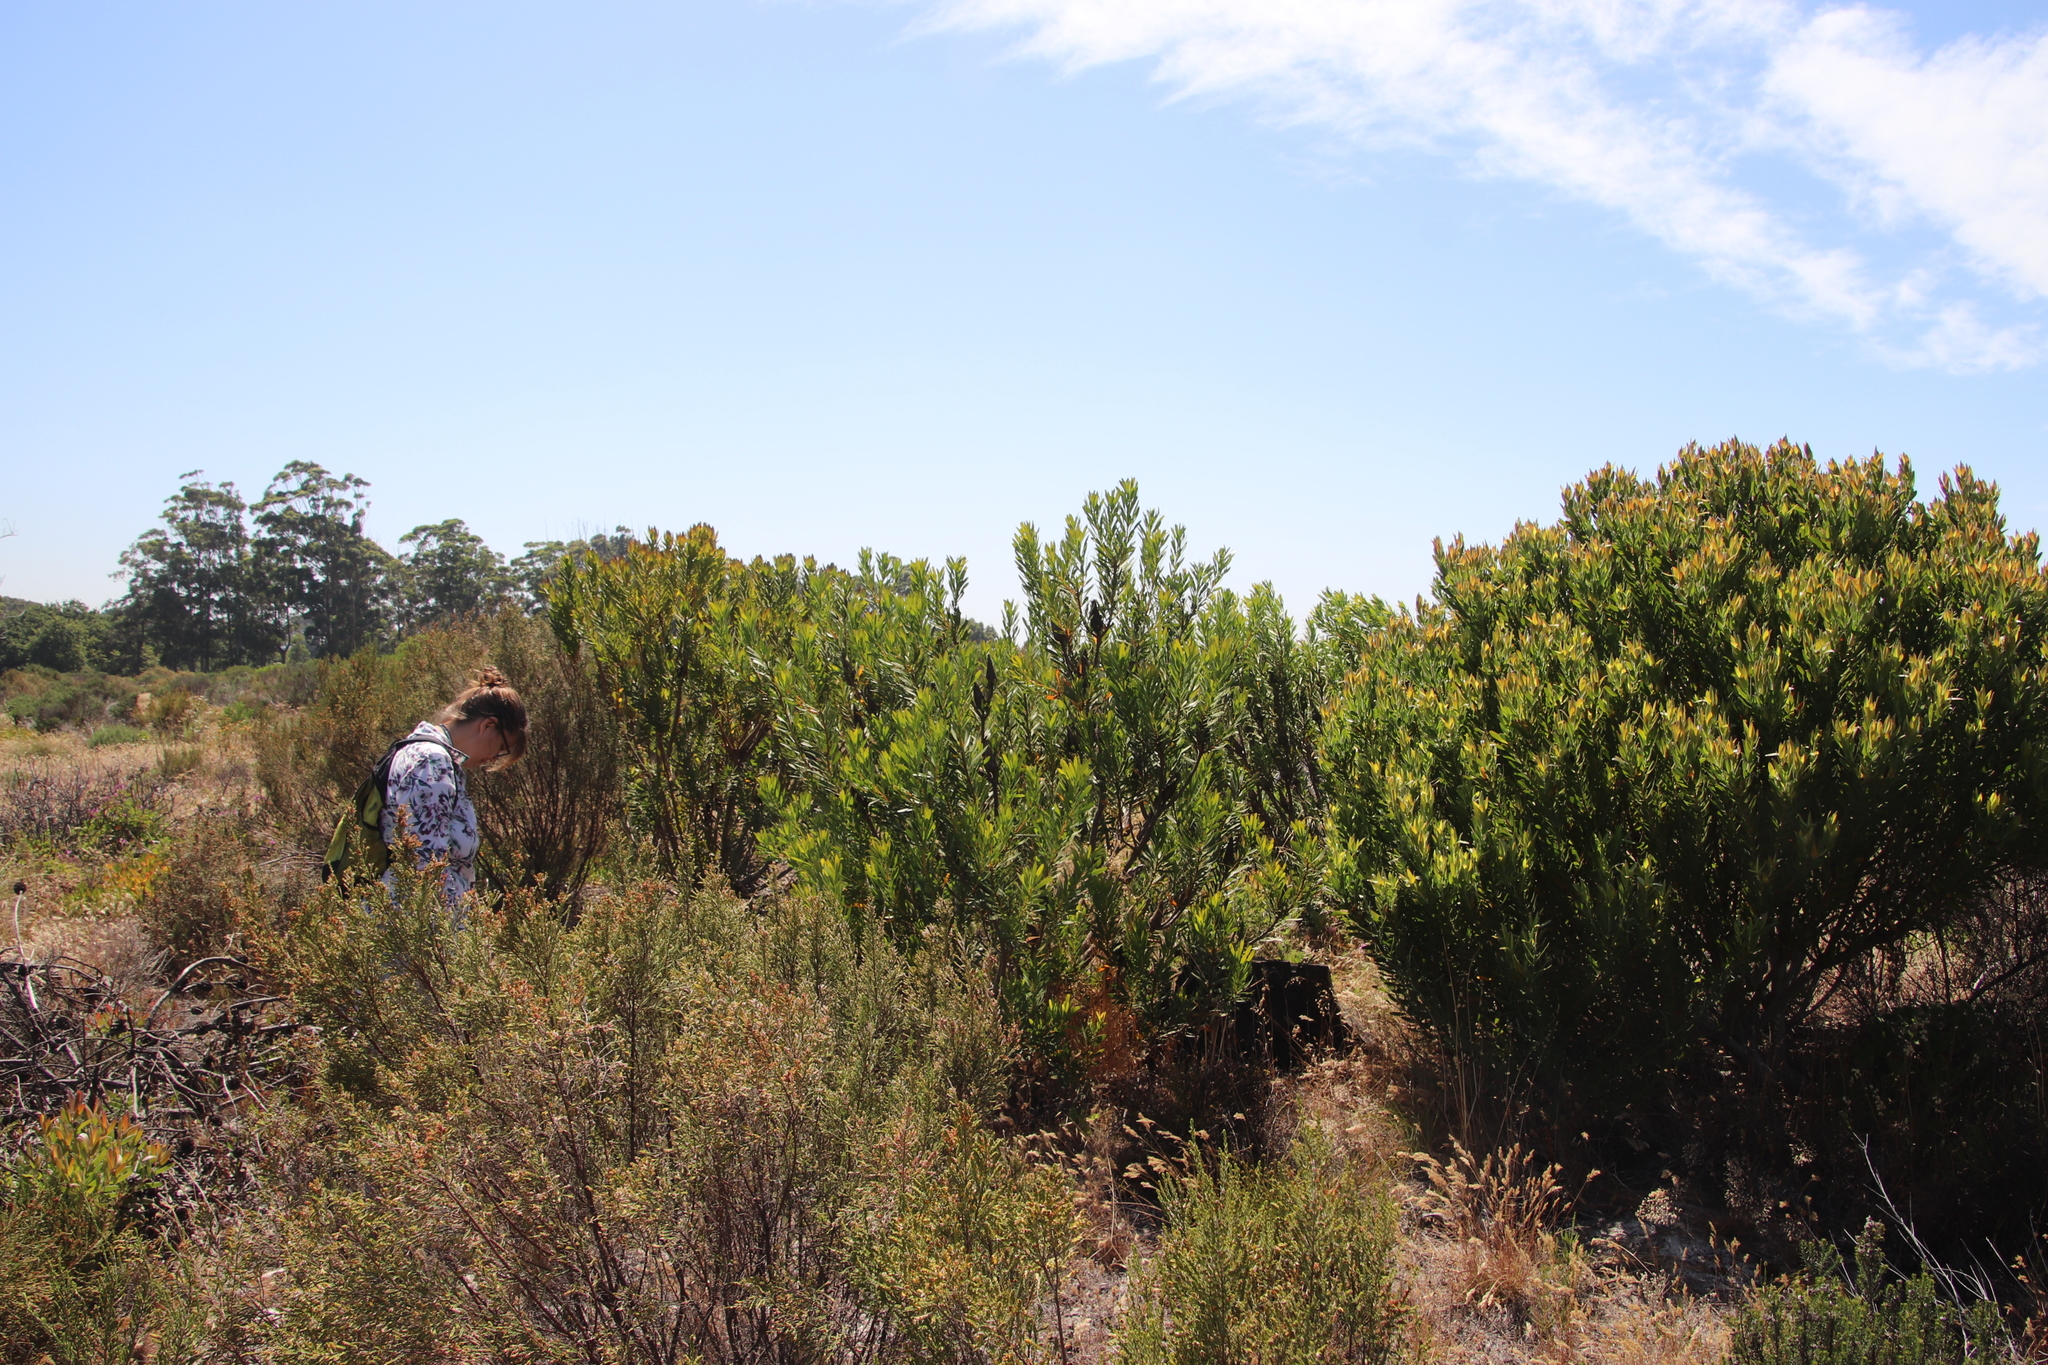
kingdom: Plantae
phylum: Tracheophyta
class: Magnoliopsida
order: Proteales
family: Proteaceae
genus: Protea
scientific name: Protea repens
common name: Sugarbush
